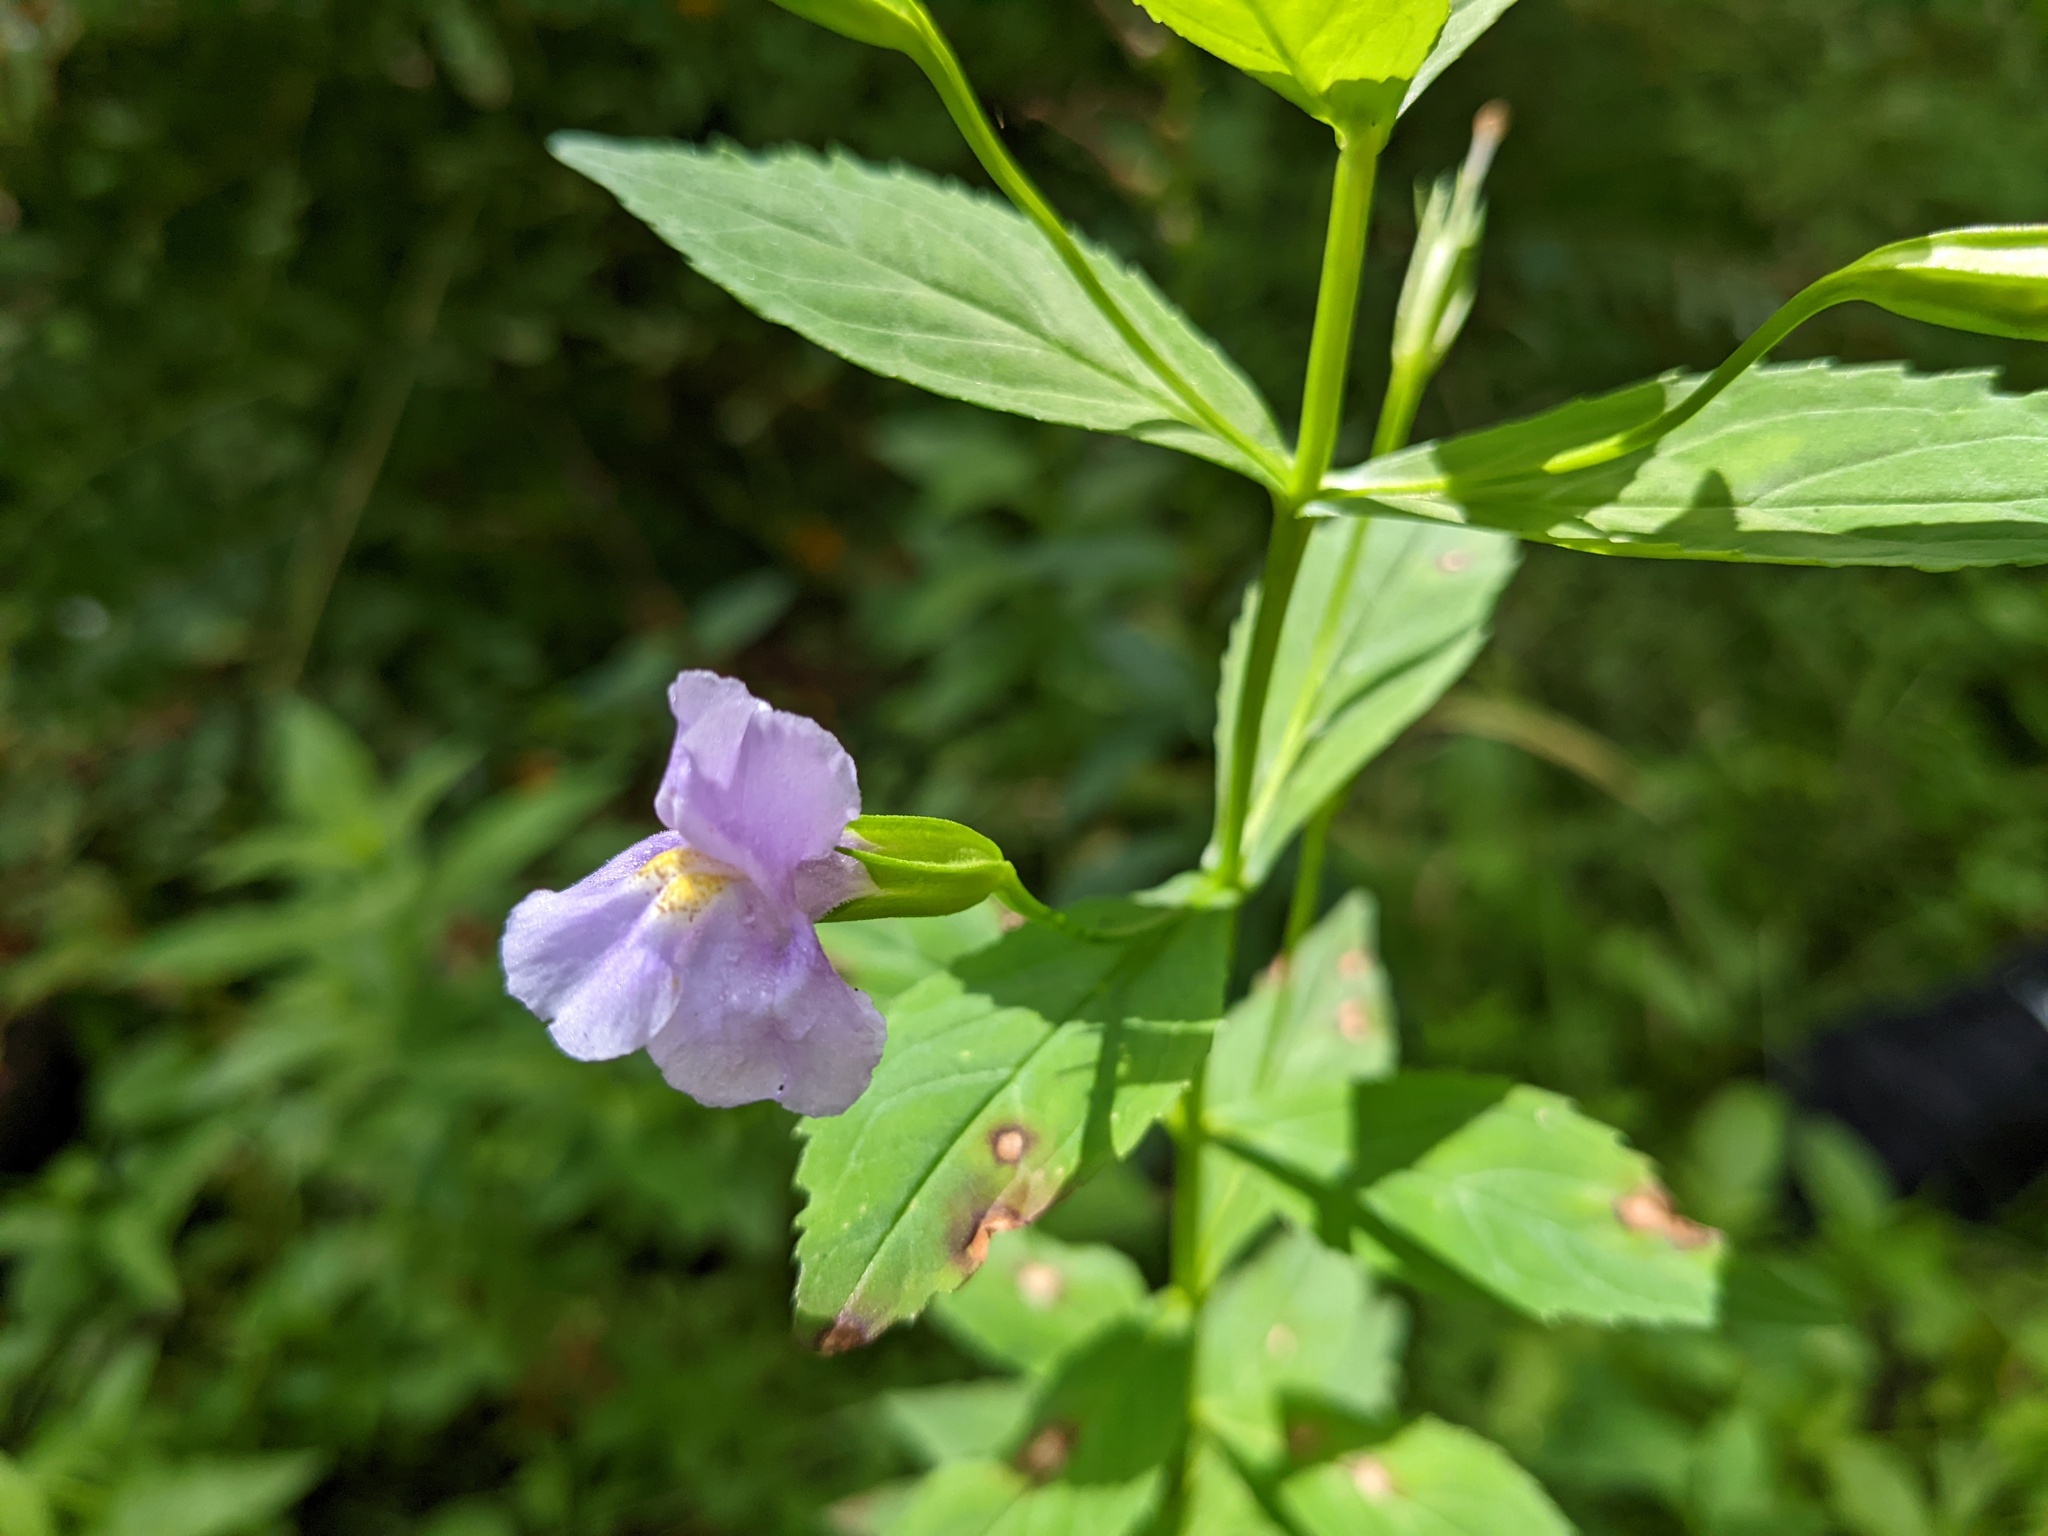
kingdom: Plantae
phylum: Tracheophyta
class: Magnoliopsida
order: Lamiales
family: Phrymaceae
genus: Mimulus
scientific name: Mimulus ringens
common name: Allegheny monkeyflower
